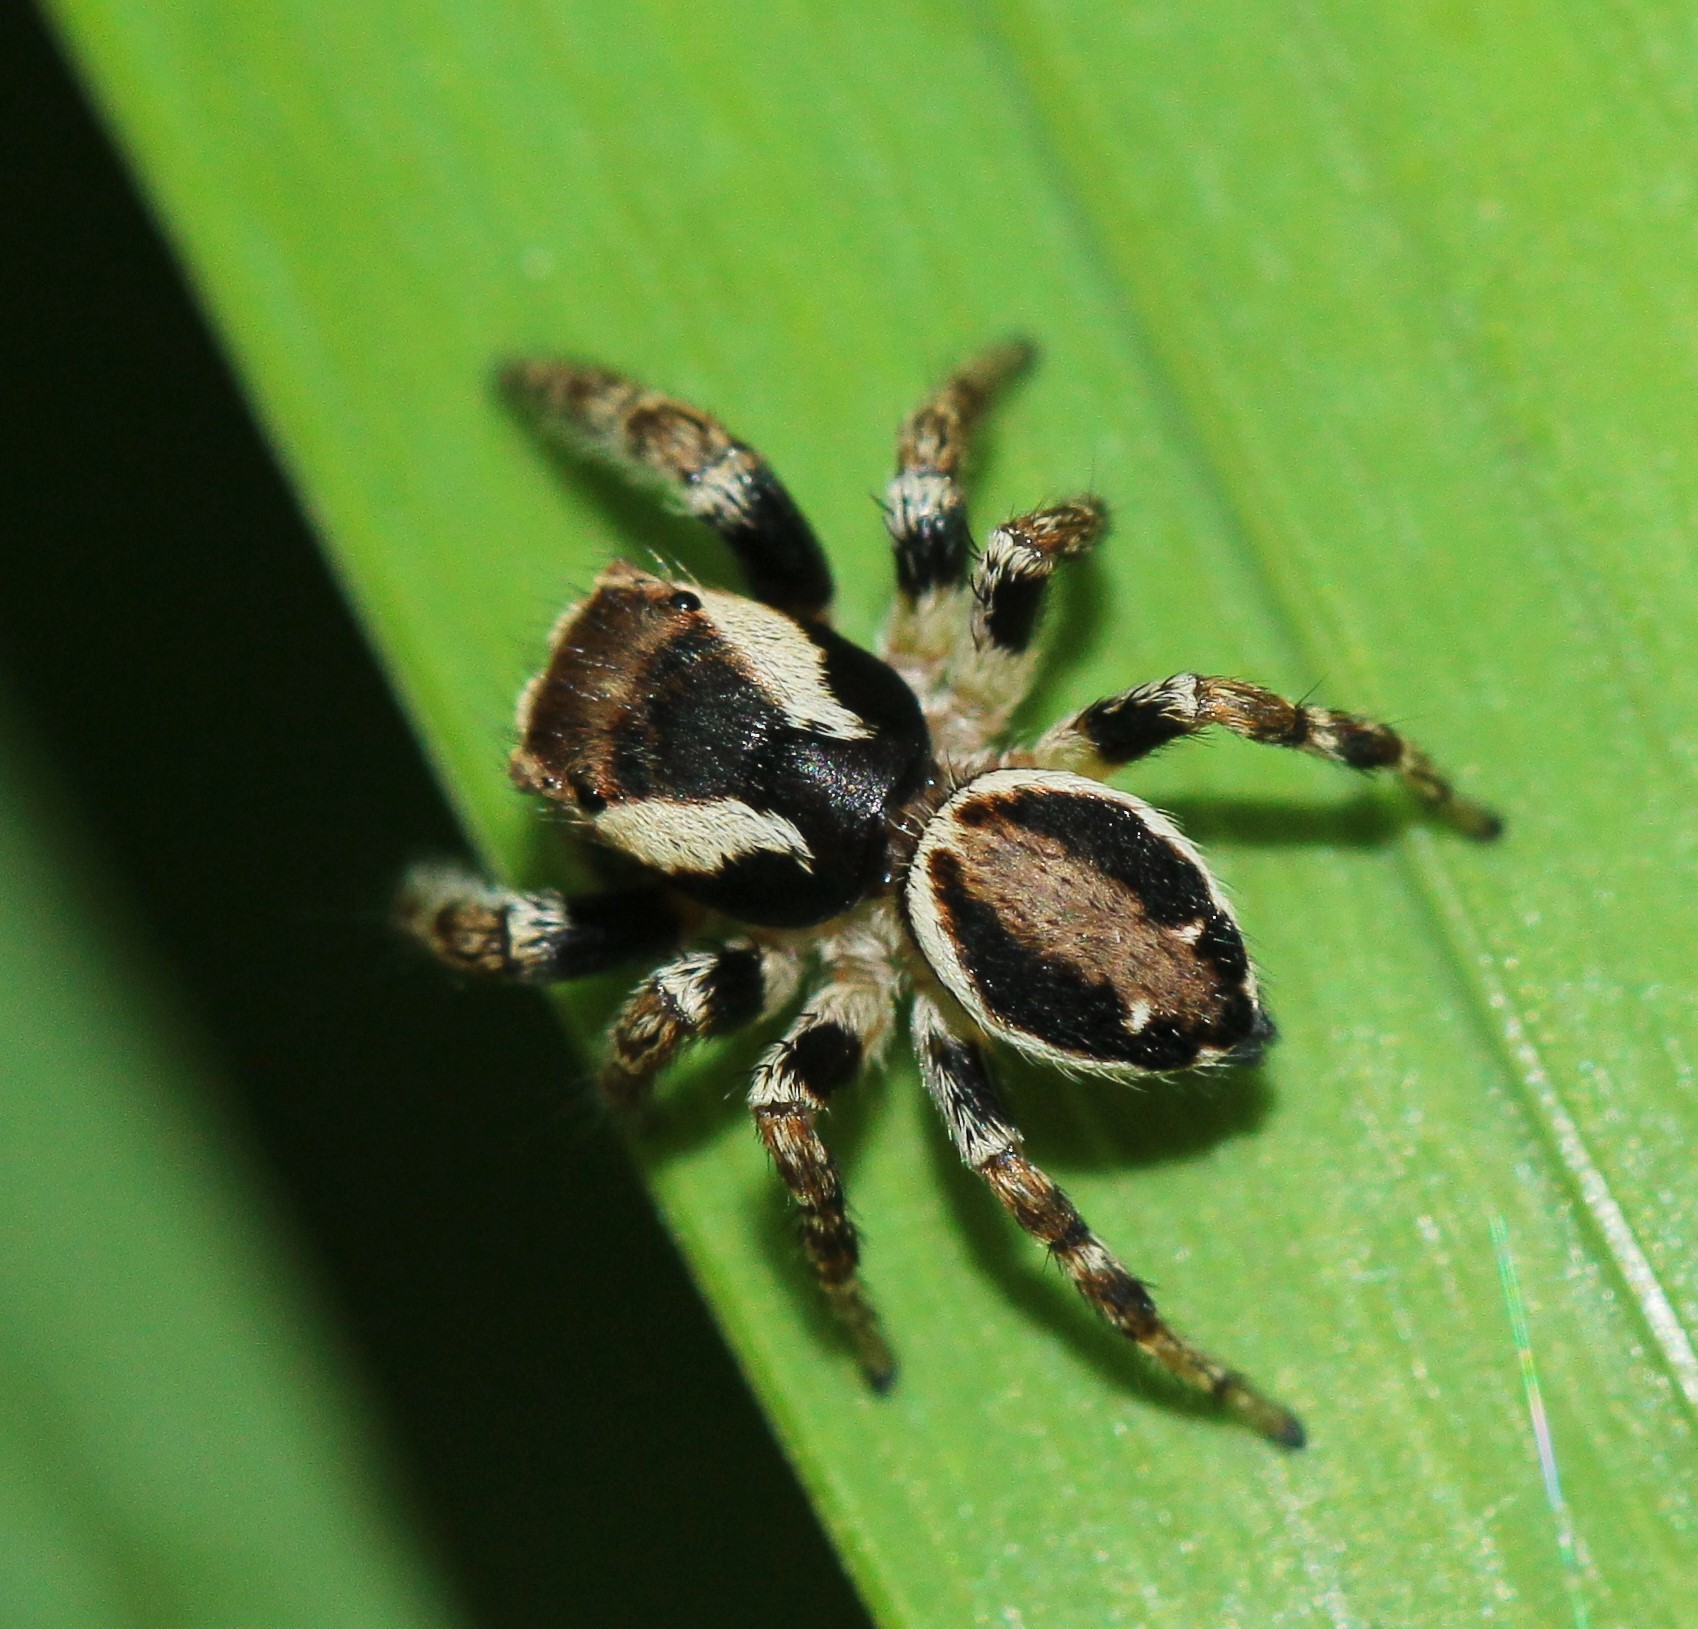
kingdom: Animalia
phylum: Arthropoda
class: Arachnida
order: Araneae
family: Salticidae
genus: Evarcha
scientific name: Evarcha falcata
